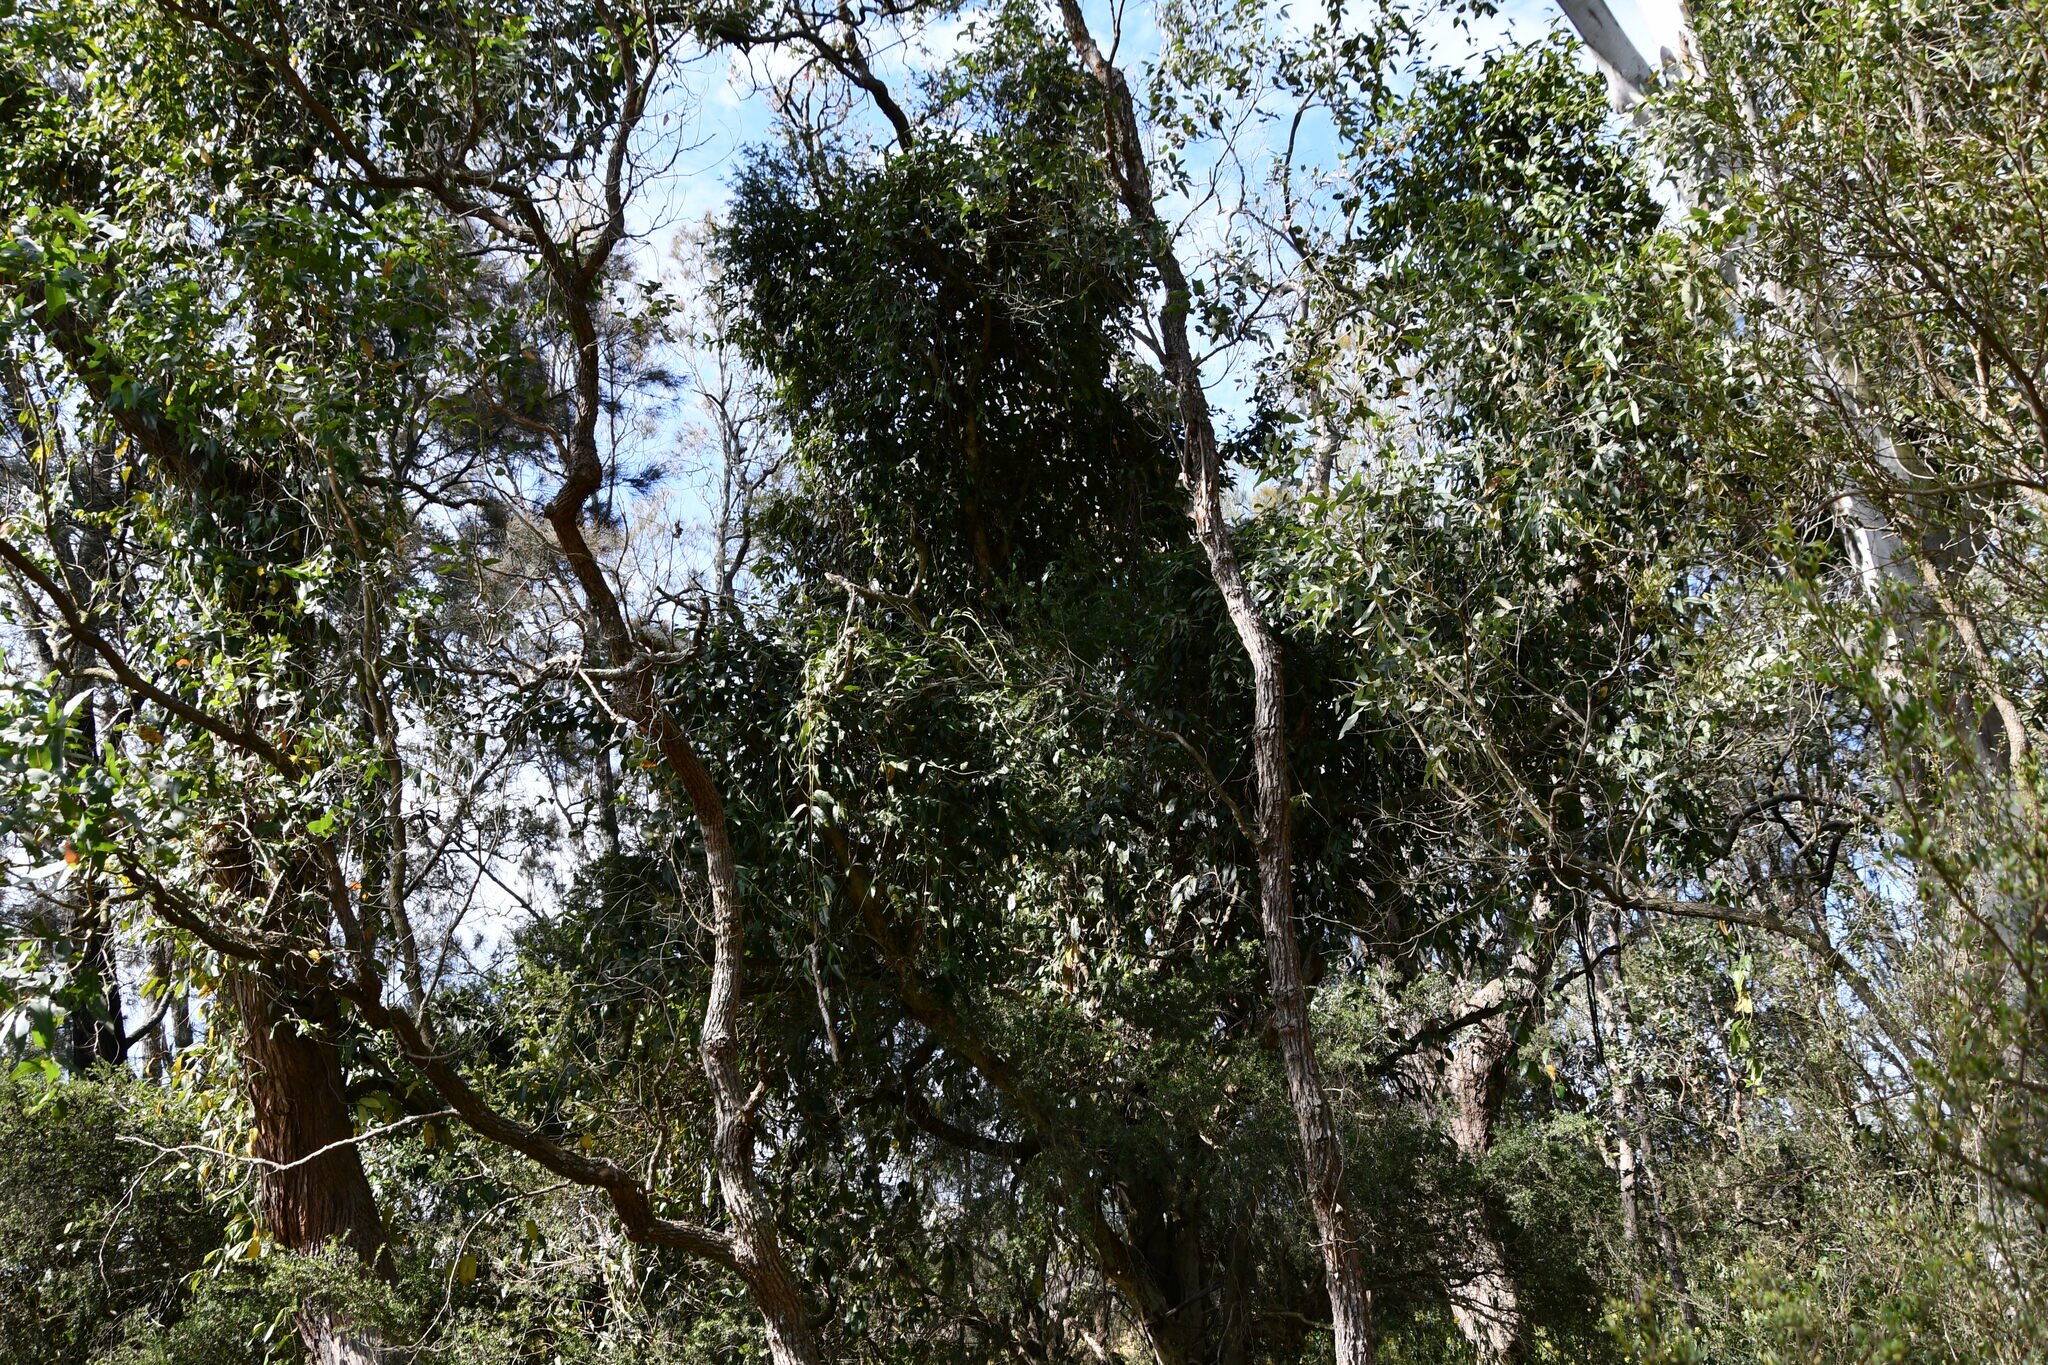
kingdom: Plantae
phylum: Tracheophyta
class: Magnoliopsida
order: Gentianales
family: Apocynaceae
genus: Parsonsia
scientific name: Parsonsia straminea
